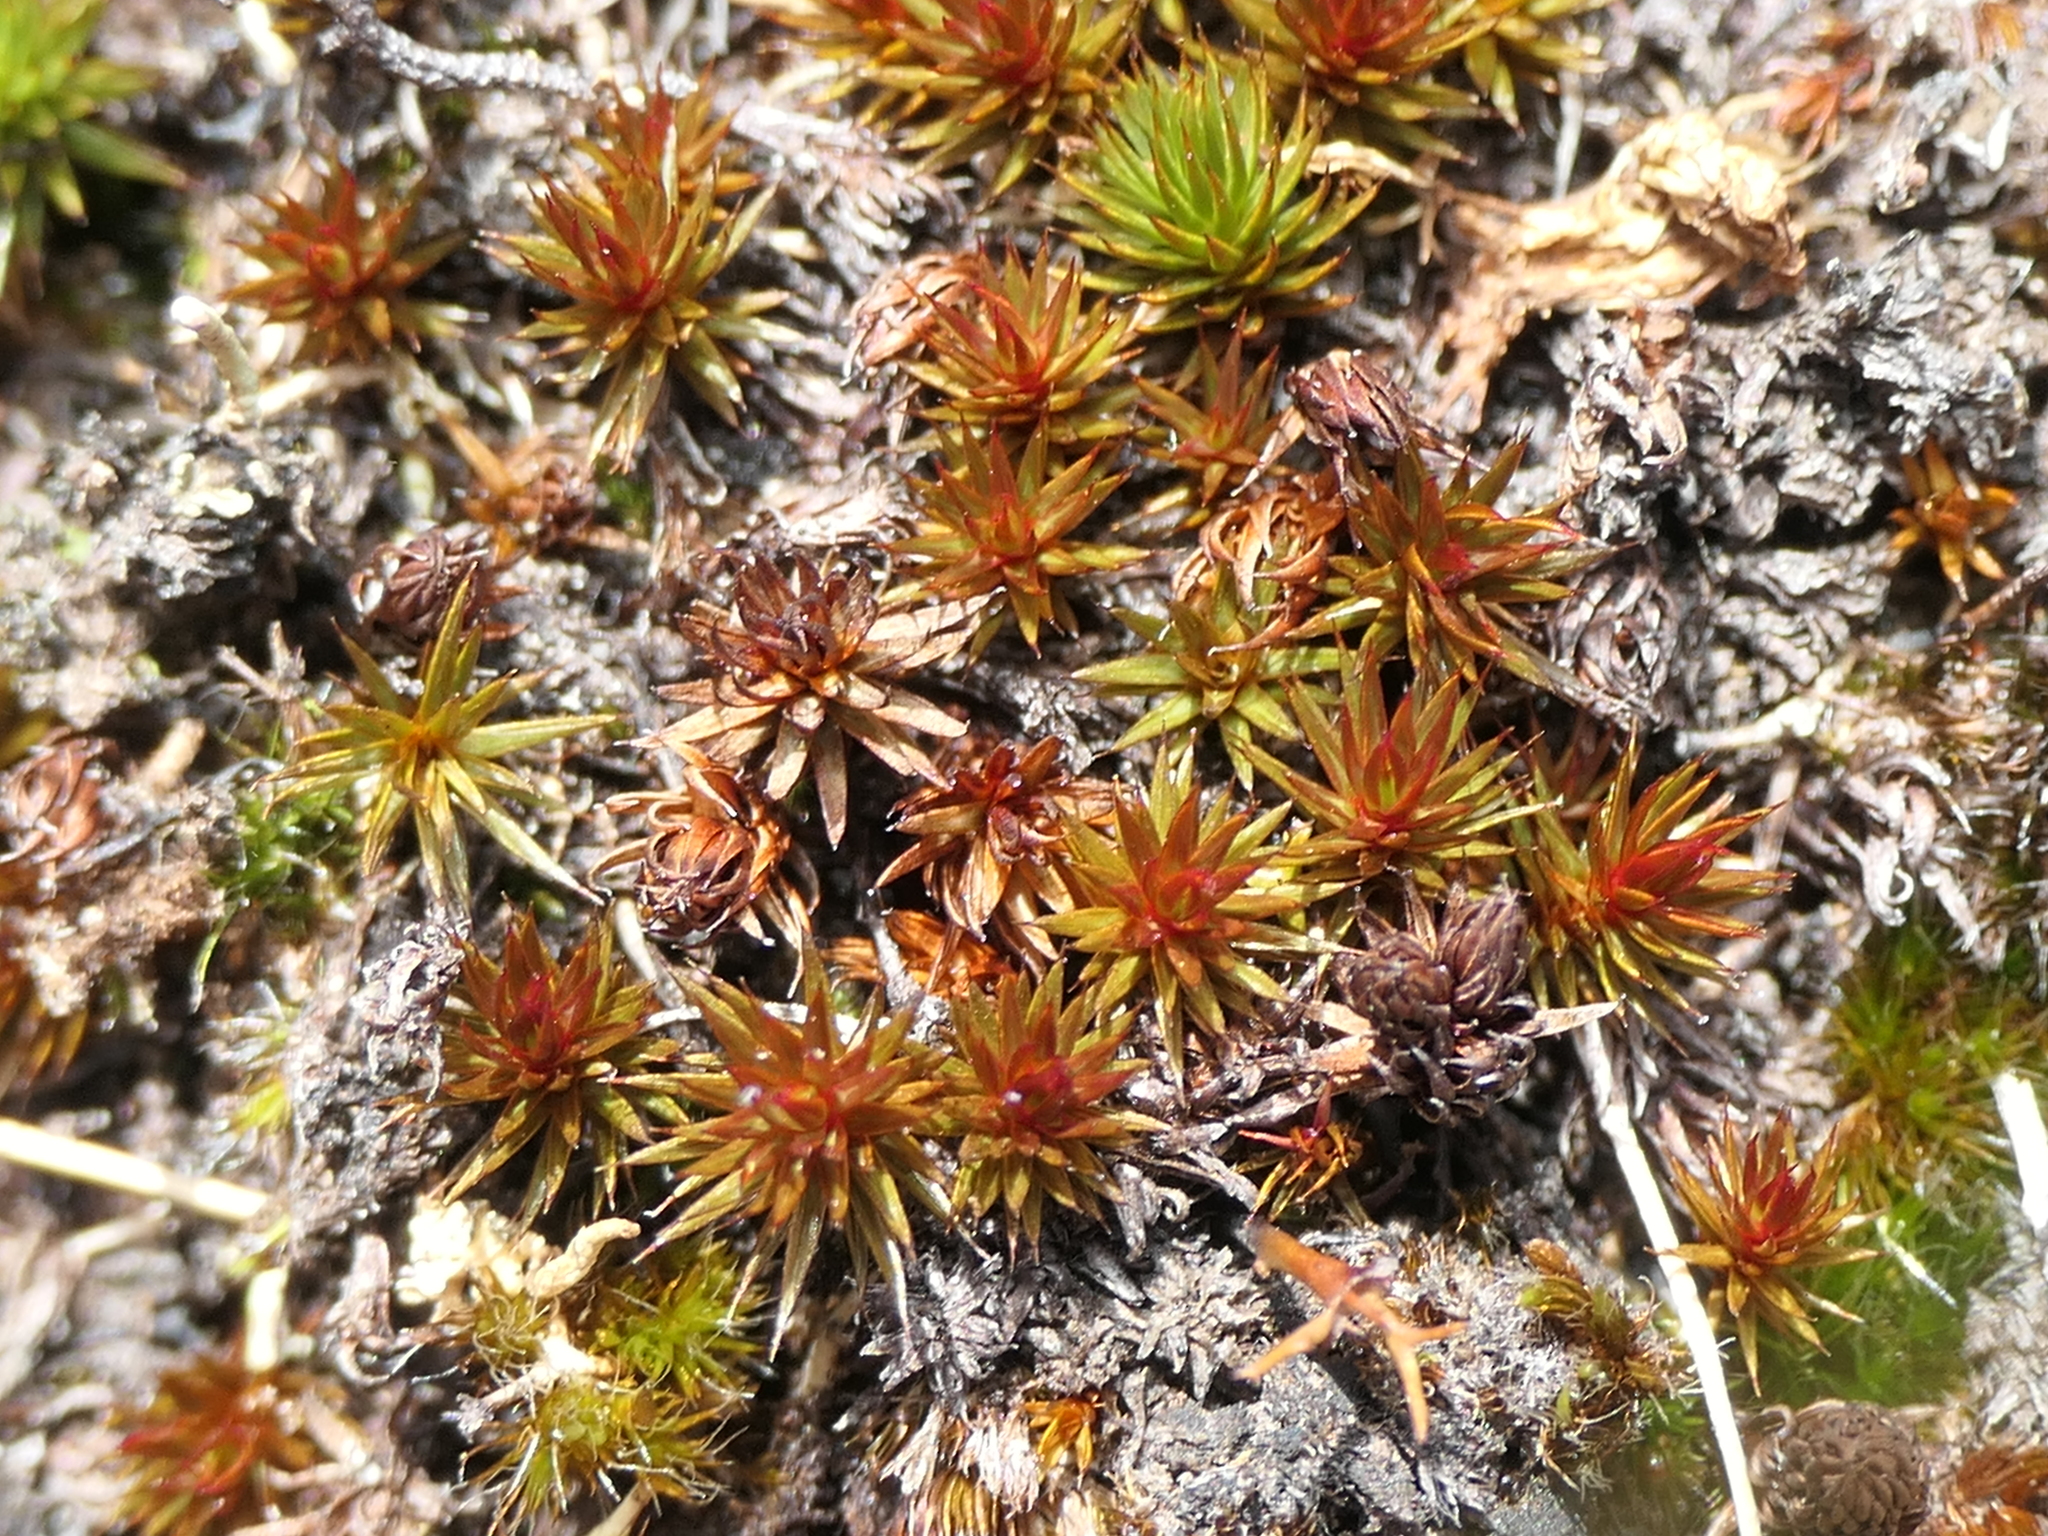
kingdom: Plantae
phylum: Bryophyta
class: Polytrichopsida
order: Polytrichales
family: Polytrichaceae
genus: Polytrichum
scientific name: Polytrichum juniperinum
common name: Juniper haircap moss
